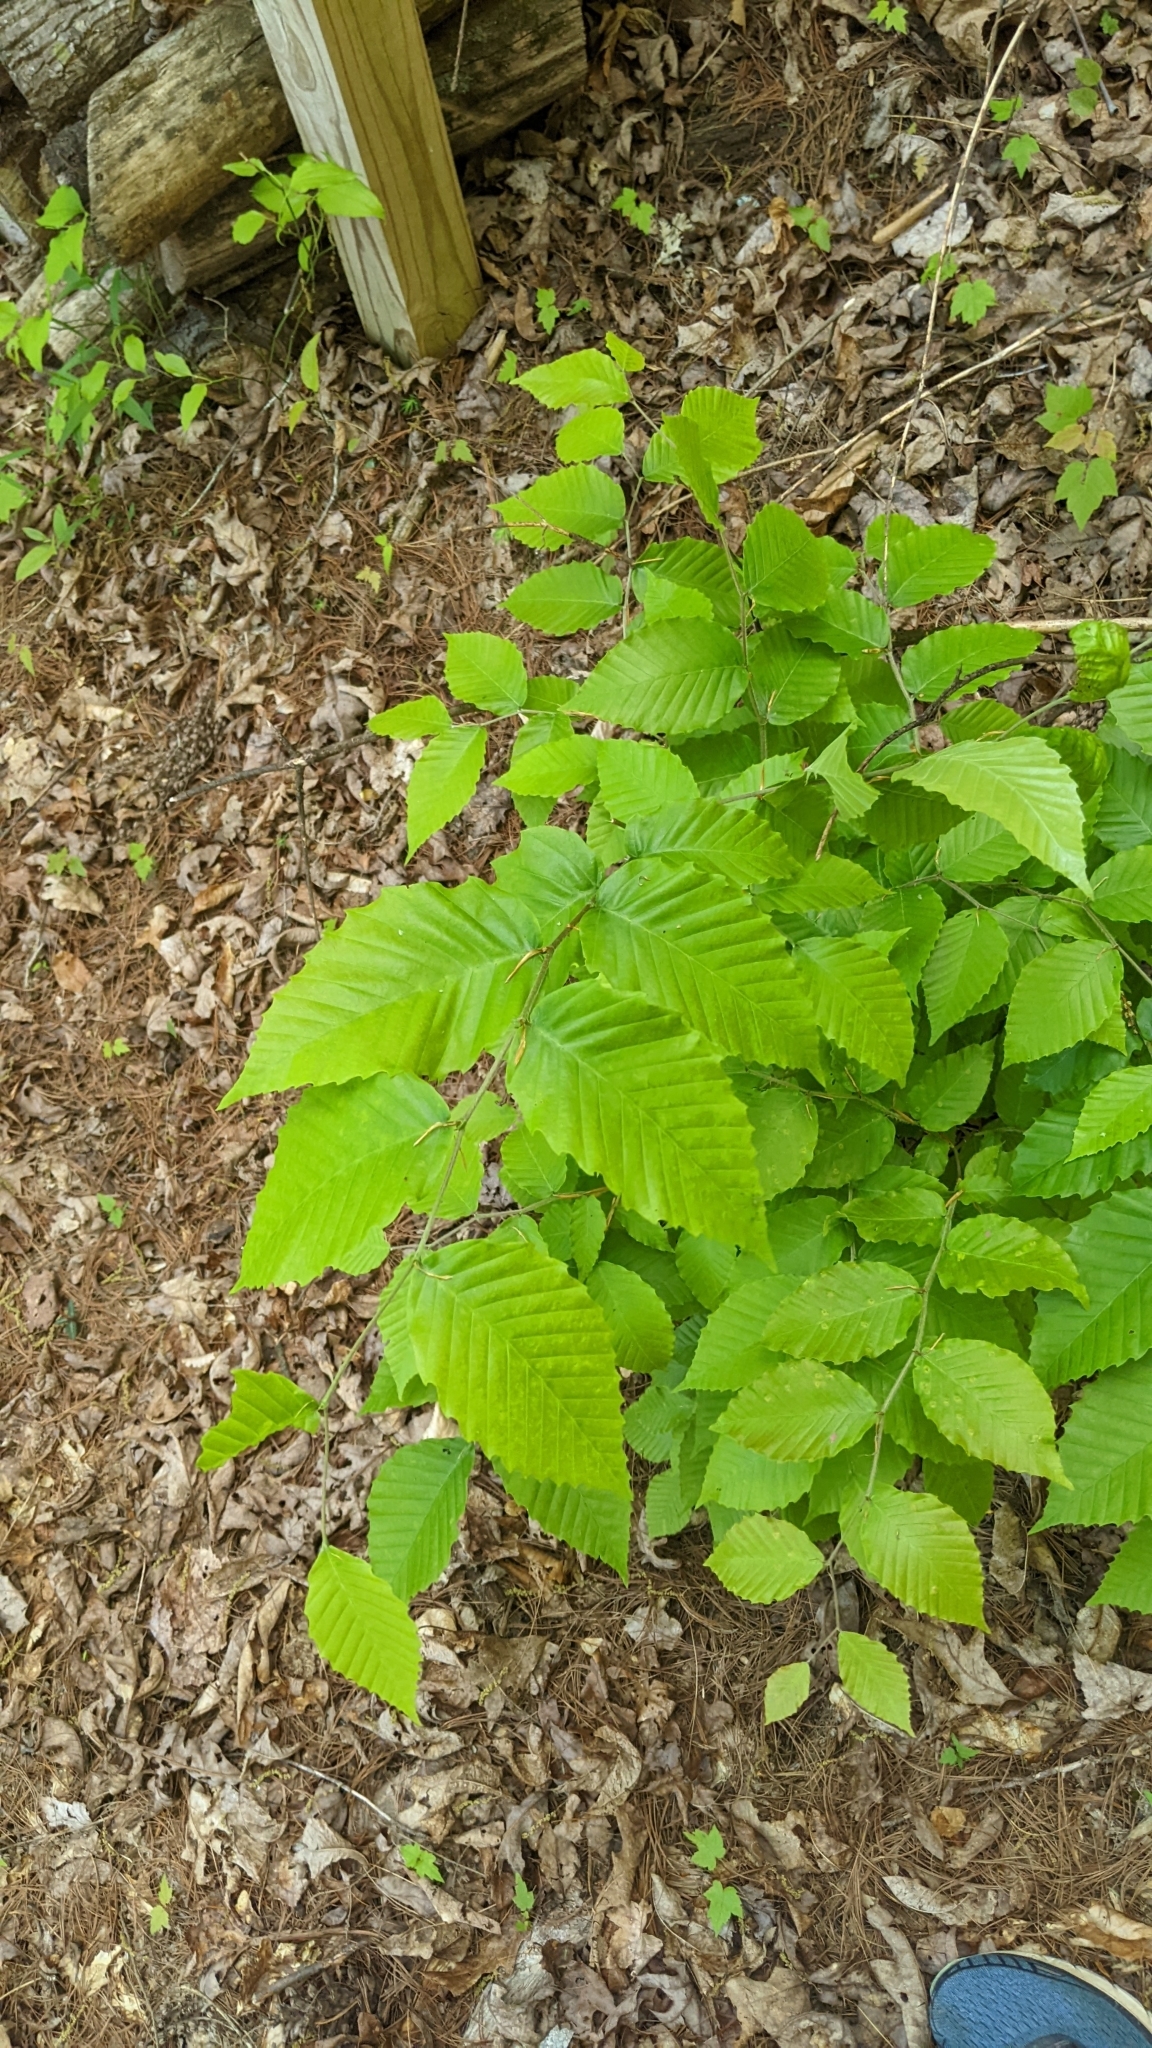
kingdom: Plantae
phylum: Tracheophyta
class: Magnoliopsida
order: Fagales
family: Fagaceae
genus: Fagus
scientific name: Fagus grandifolia
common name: American beech
